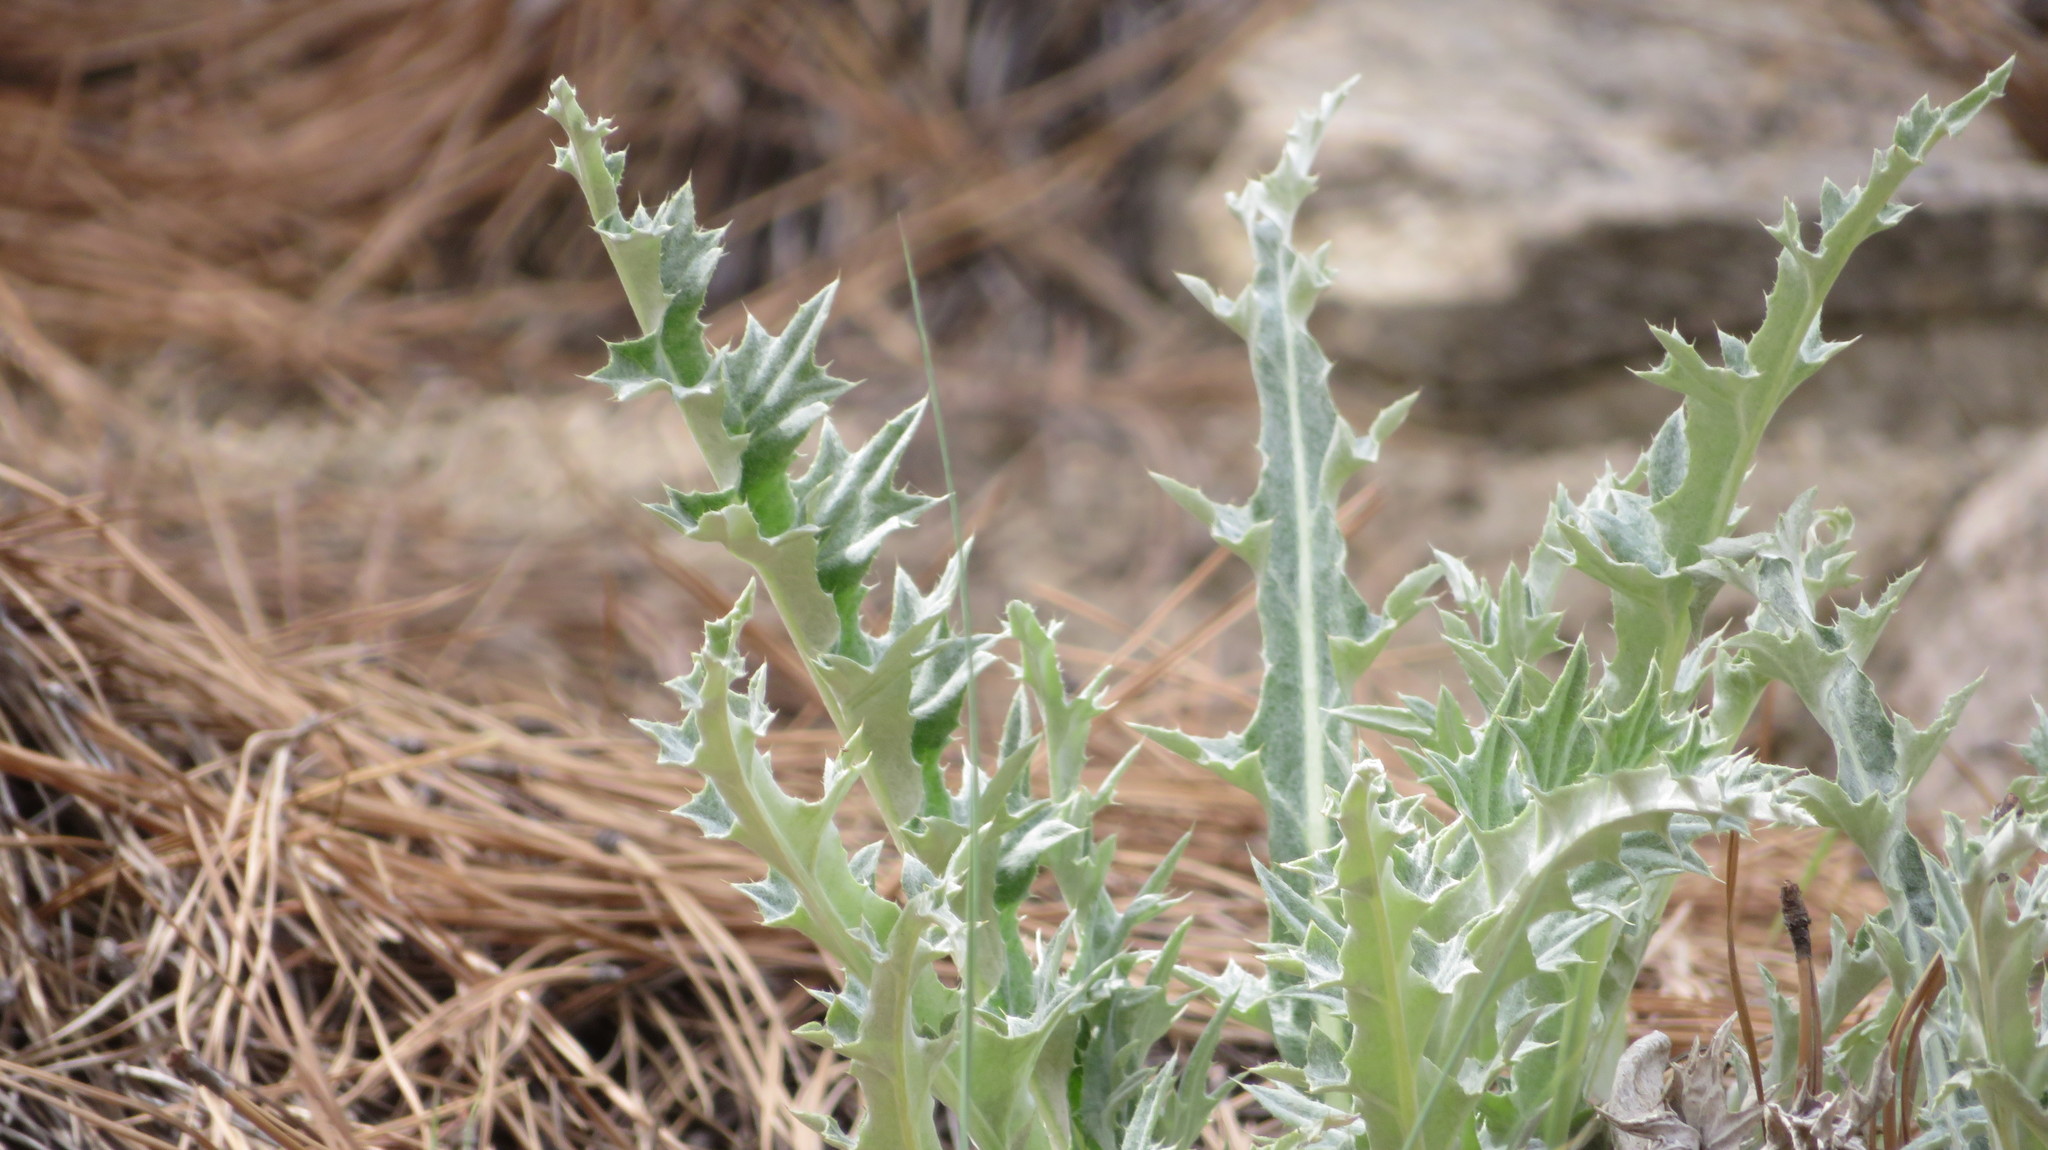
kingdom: Plantae
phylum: Tracheophyta
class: Magnoliopsida
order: Asterales
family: Asteraceae
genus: Cirsium
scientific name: Cirsium undulatum
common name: Pasture thistle
